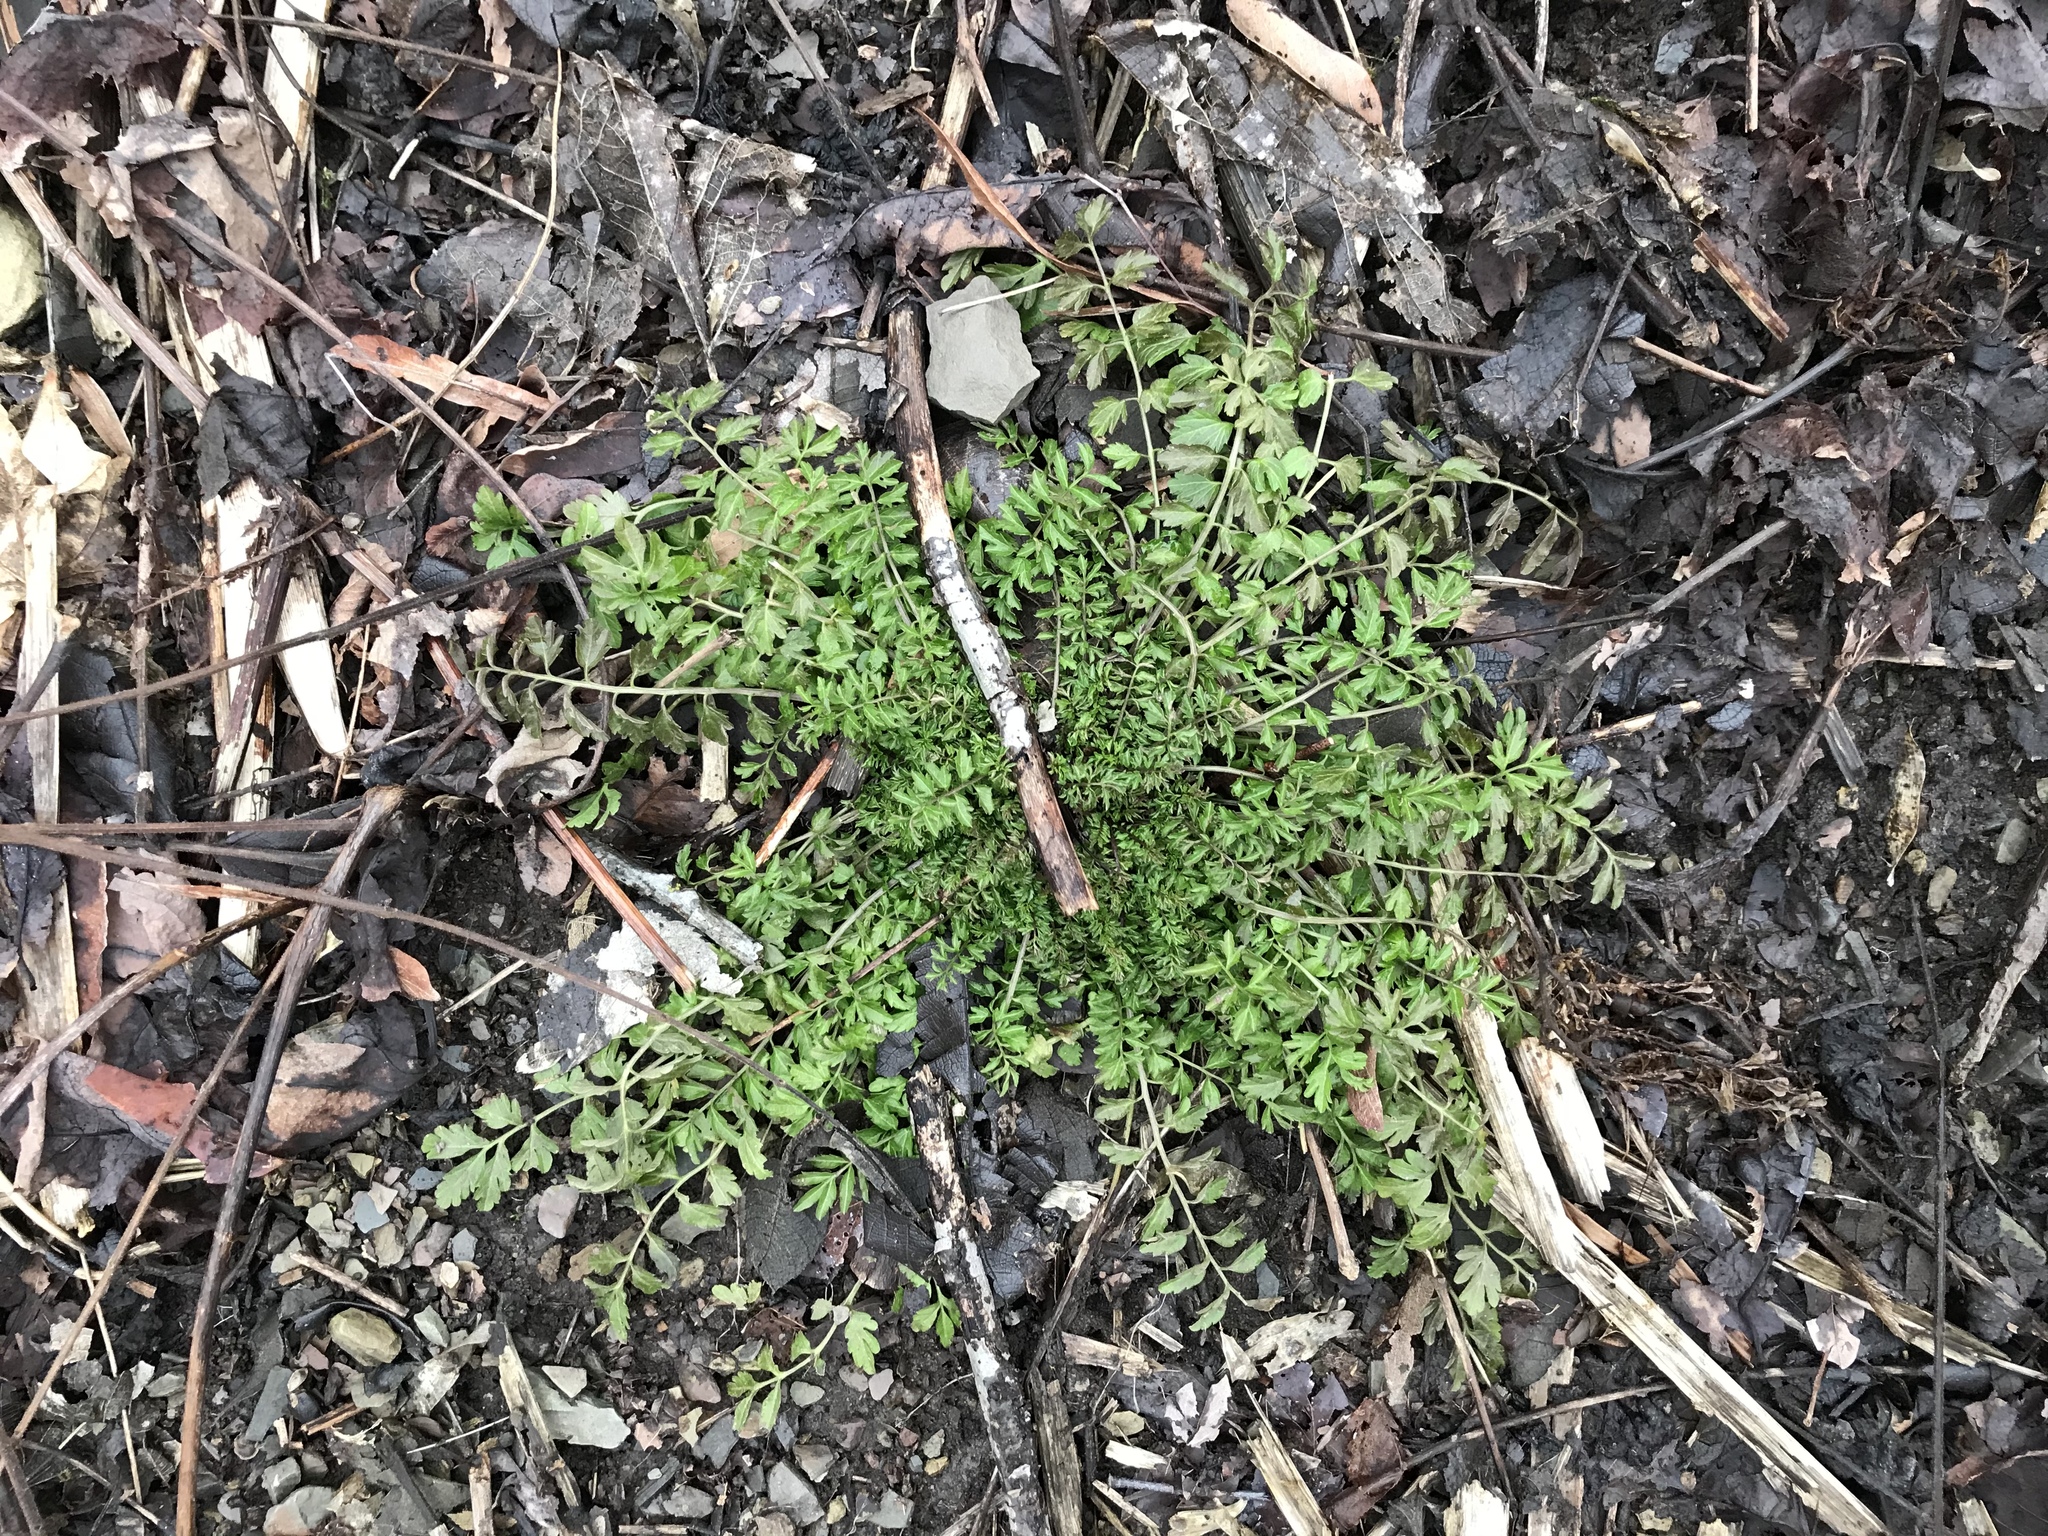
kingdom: Plantae
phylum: Tracheophyta
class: Magnoliopsida
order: Brassicales
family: Brassicaceae
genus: Cardamine
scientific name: Cardamine impatiens
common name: Narrow-leaved bitter-cress
